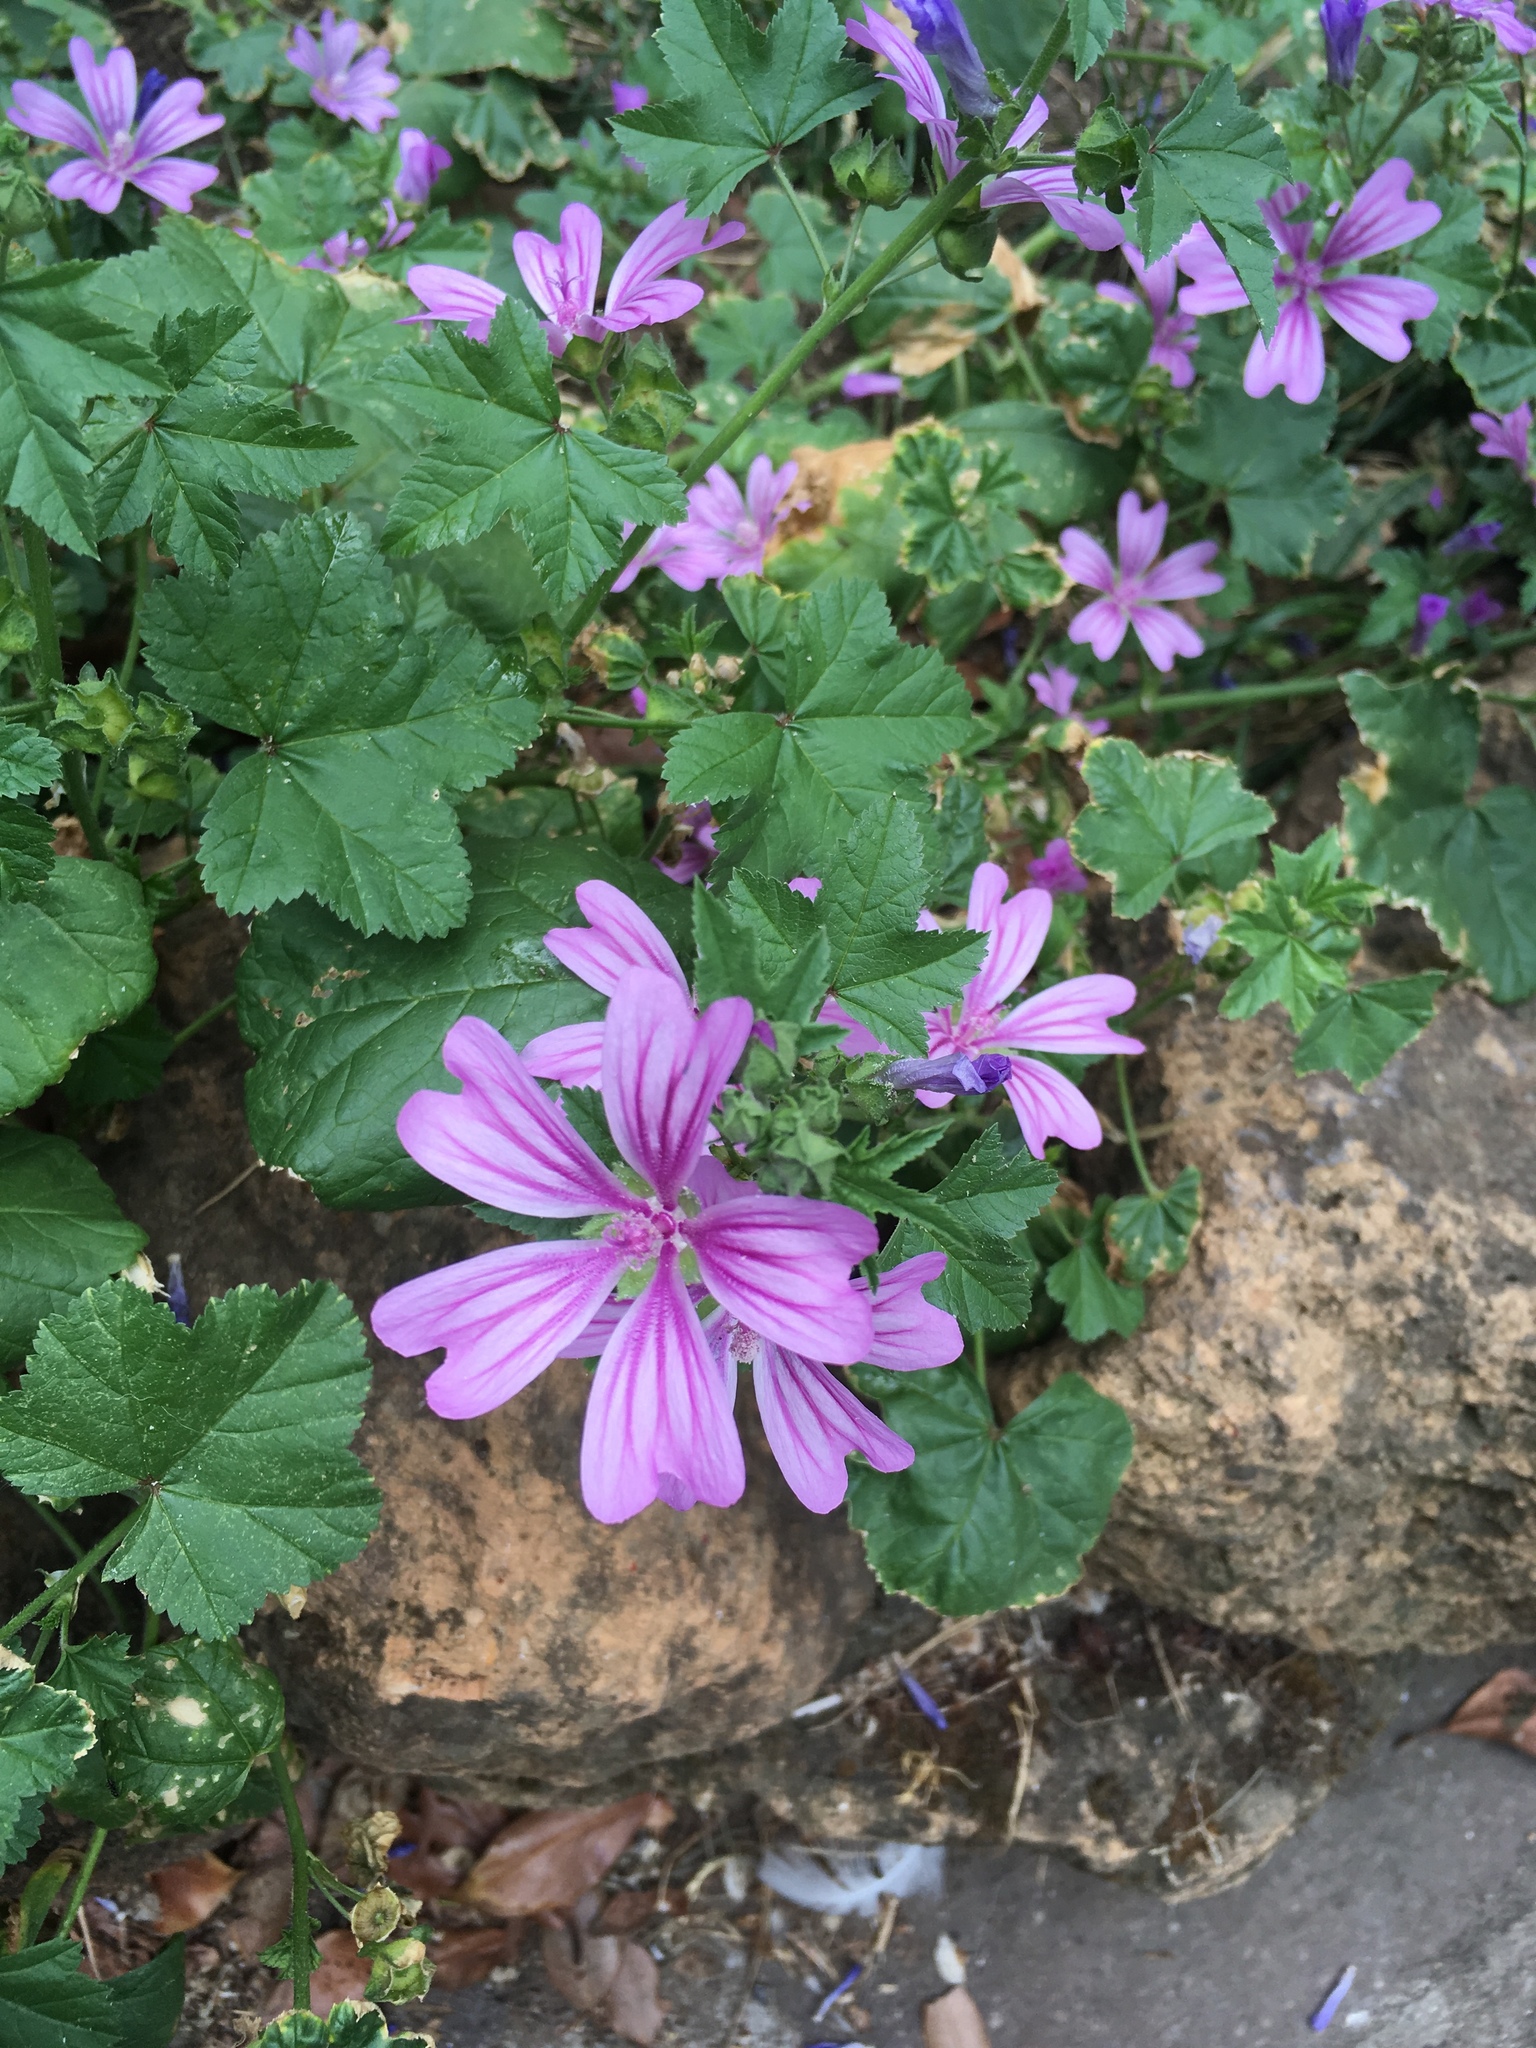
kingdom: Plantae
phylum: Tracheophyta
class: Magnoliopsida
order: Malvales
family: Malvaceae
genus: Malva
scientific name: Malva sylvestris
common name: Common mallow
